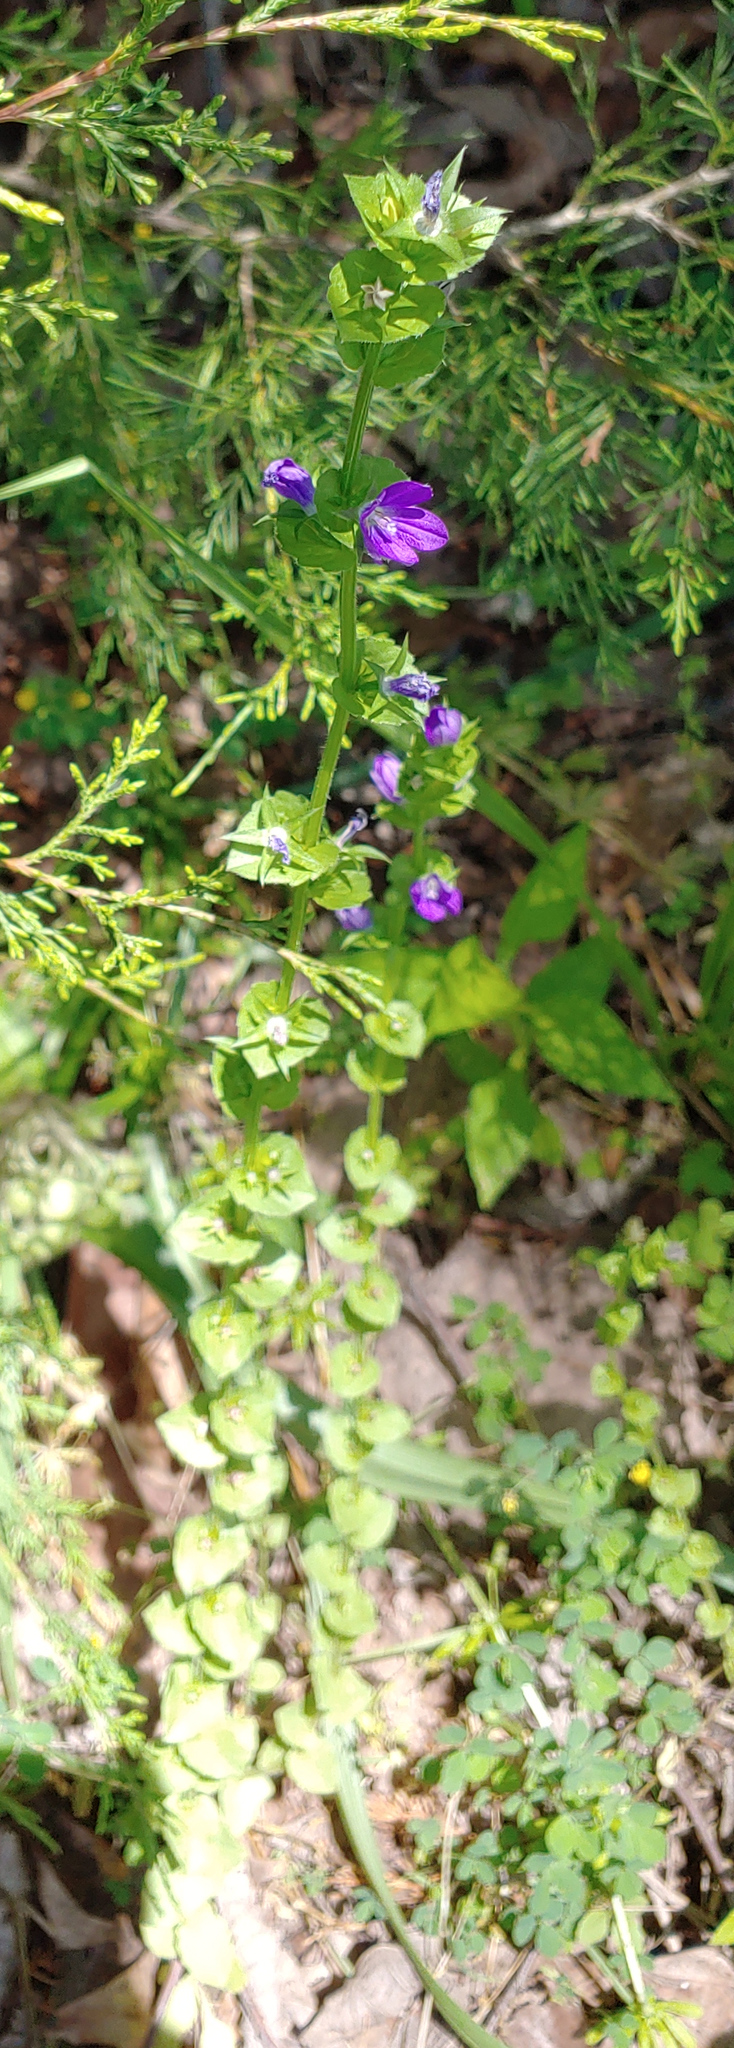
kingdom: Plantae
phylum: Tracheophyta
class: Magnoliopsida
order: Asterales
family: Campanulaceae
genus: Triodanis
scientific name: Triodanis biflora
